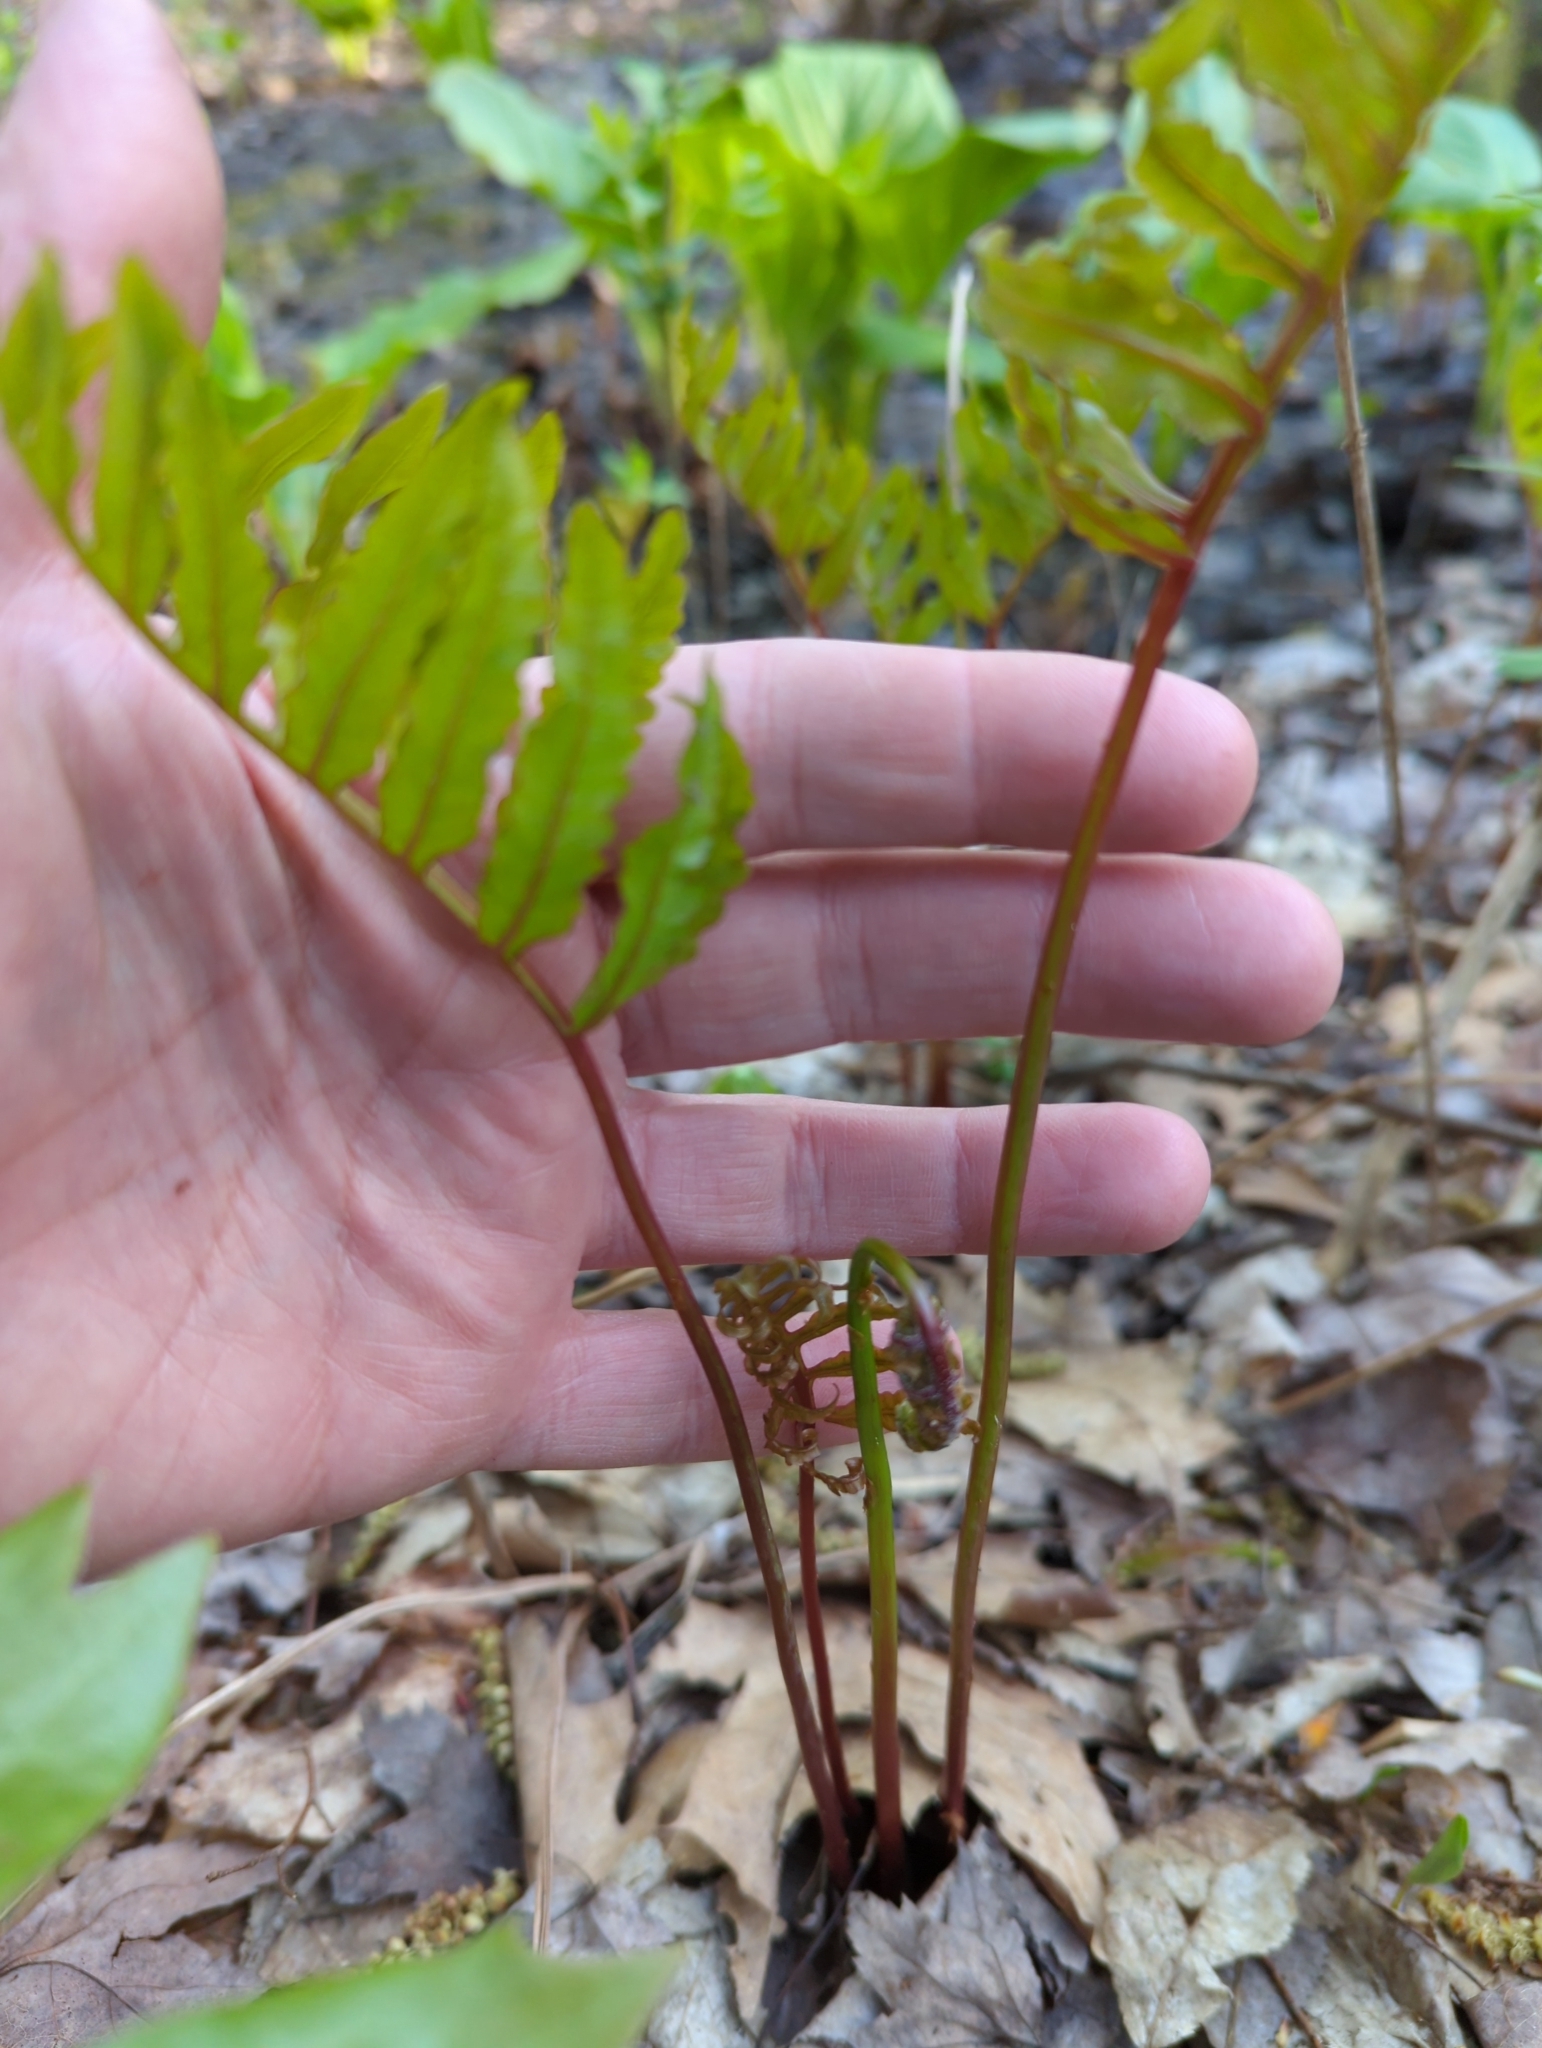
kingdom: Plantae
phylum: Tracheophyta
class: Polypodiopsida
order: Polypodiales
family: Onocleaceae
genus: Onoclea
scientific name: Onoclea sensibilis
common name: Sensitive fern
